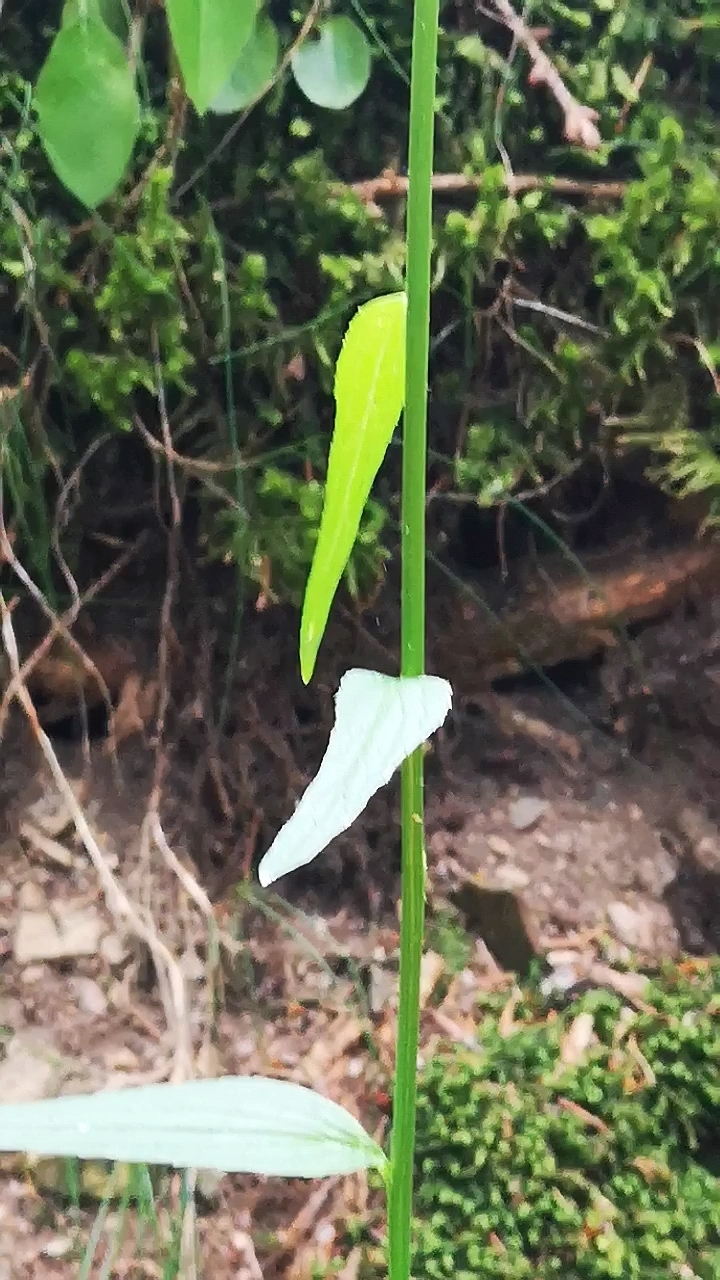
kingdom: Plantae
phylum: Tracheophyta
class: Magnoliopsida
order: Asterales
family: Campanulaceae
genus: Phyteuma
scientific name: Phyteuma spicatum
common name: Spiked rampion
